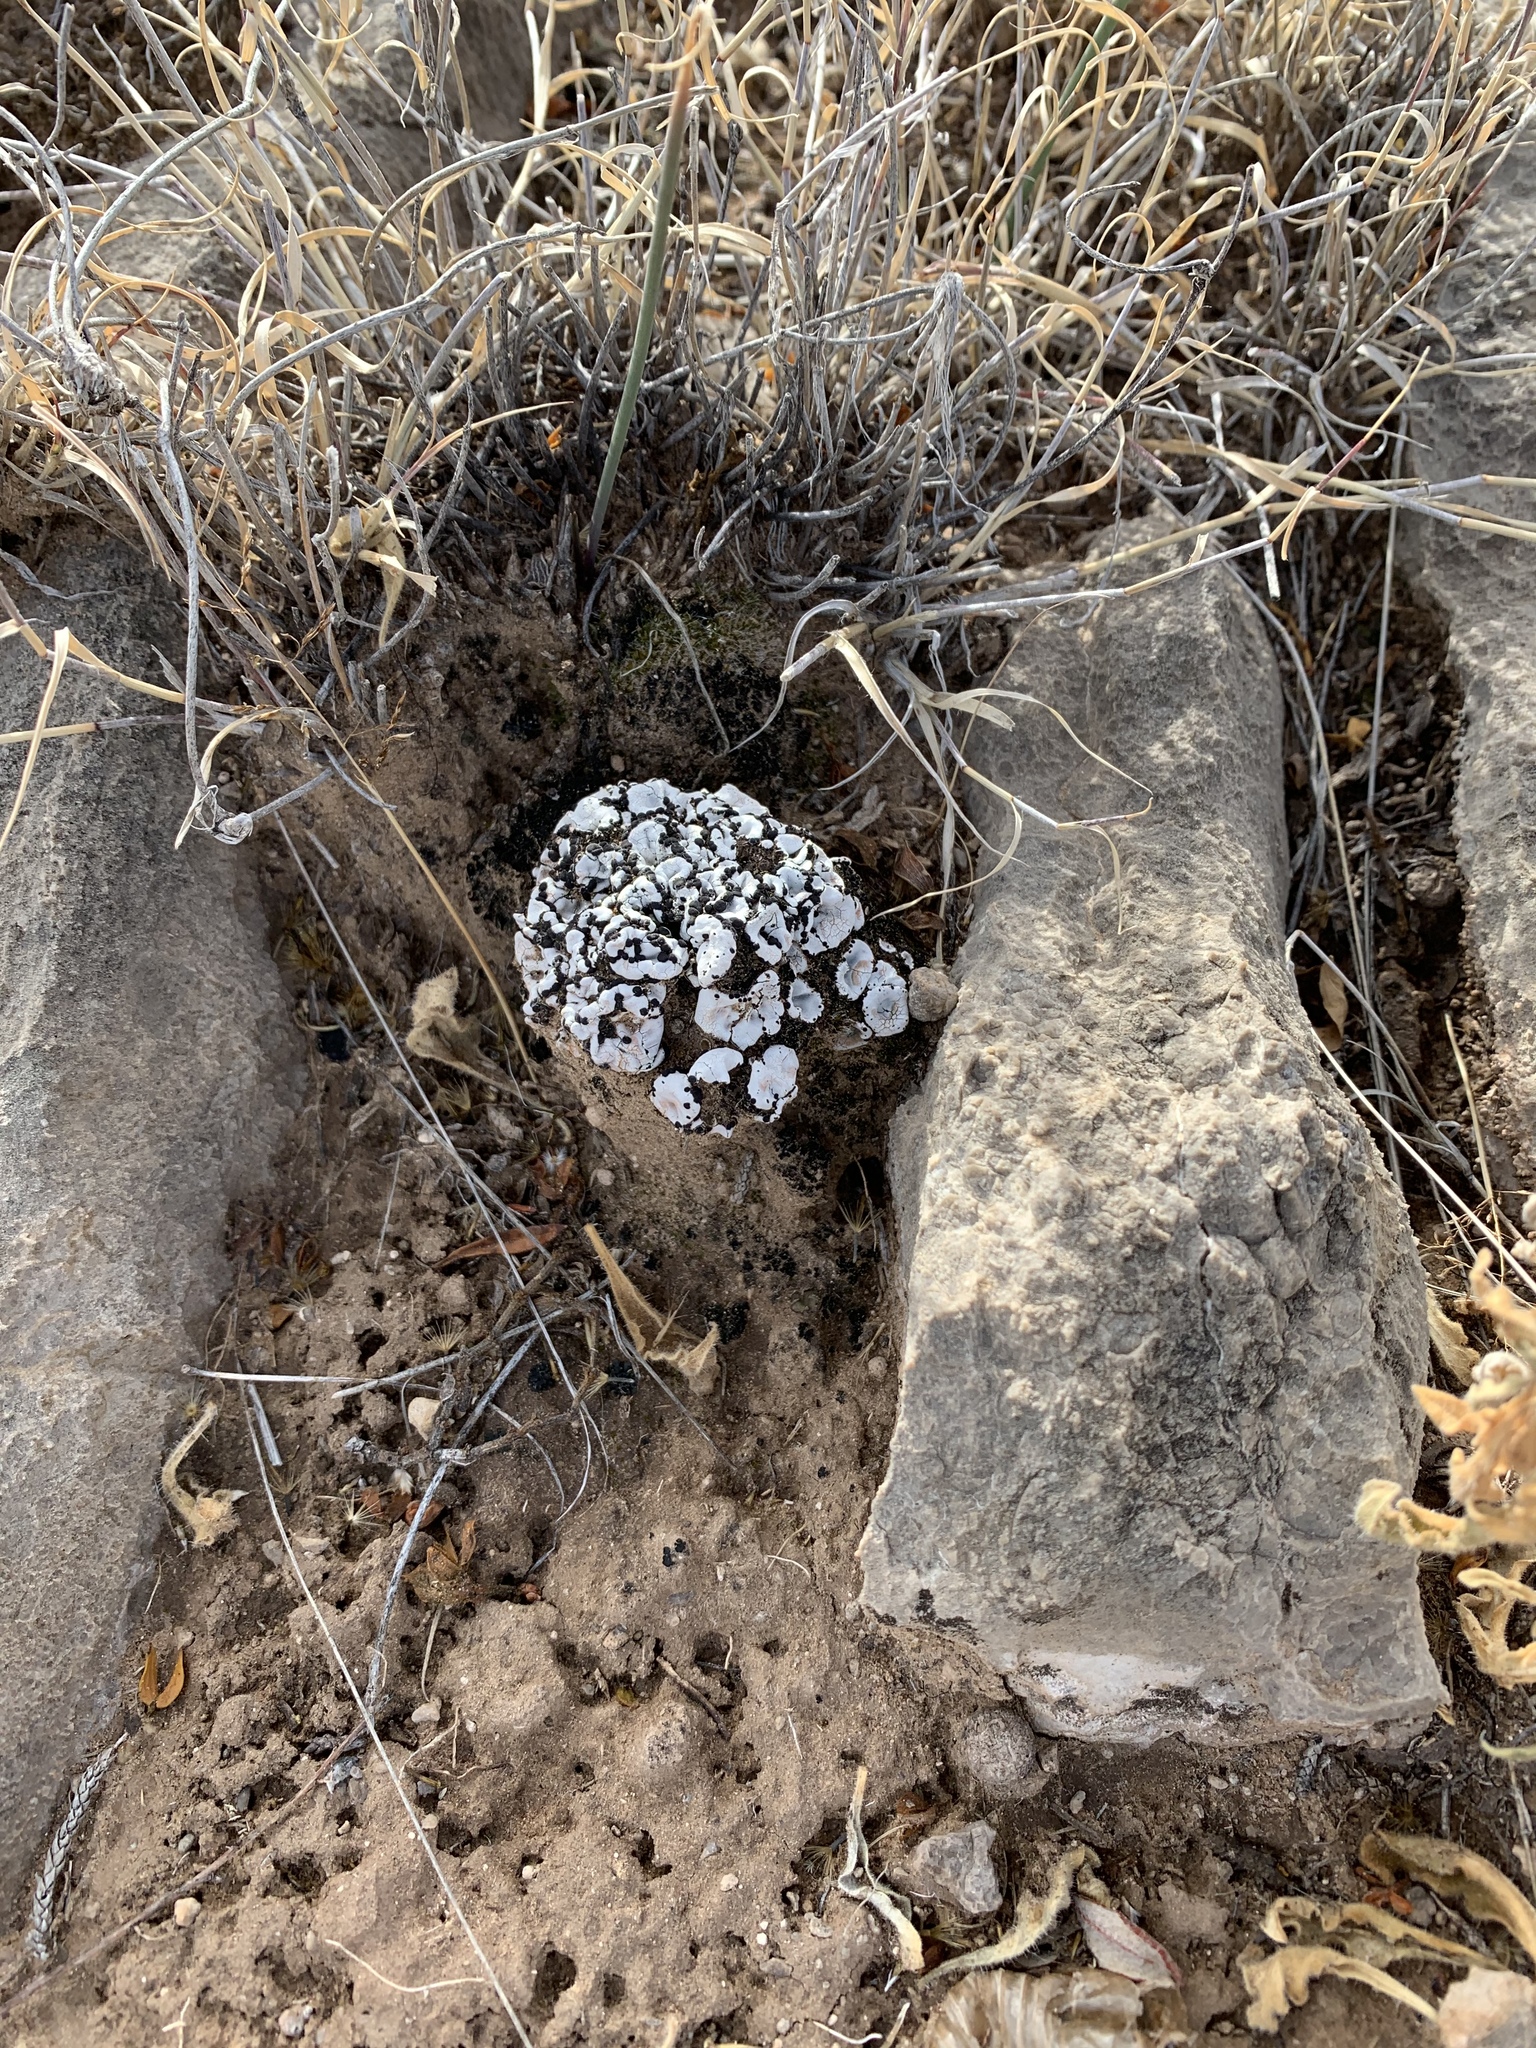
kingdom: Fungi
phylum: Ascomycota
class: Lecanoromycetes
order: Lecanorales
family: Psoraceae
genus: Psora
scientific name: Psora crenata
